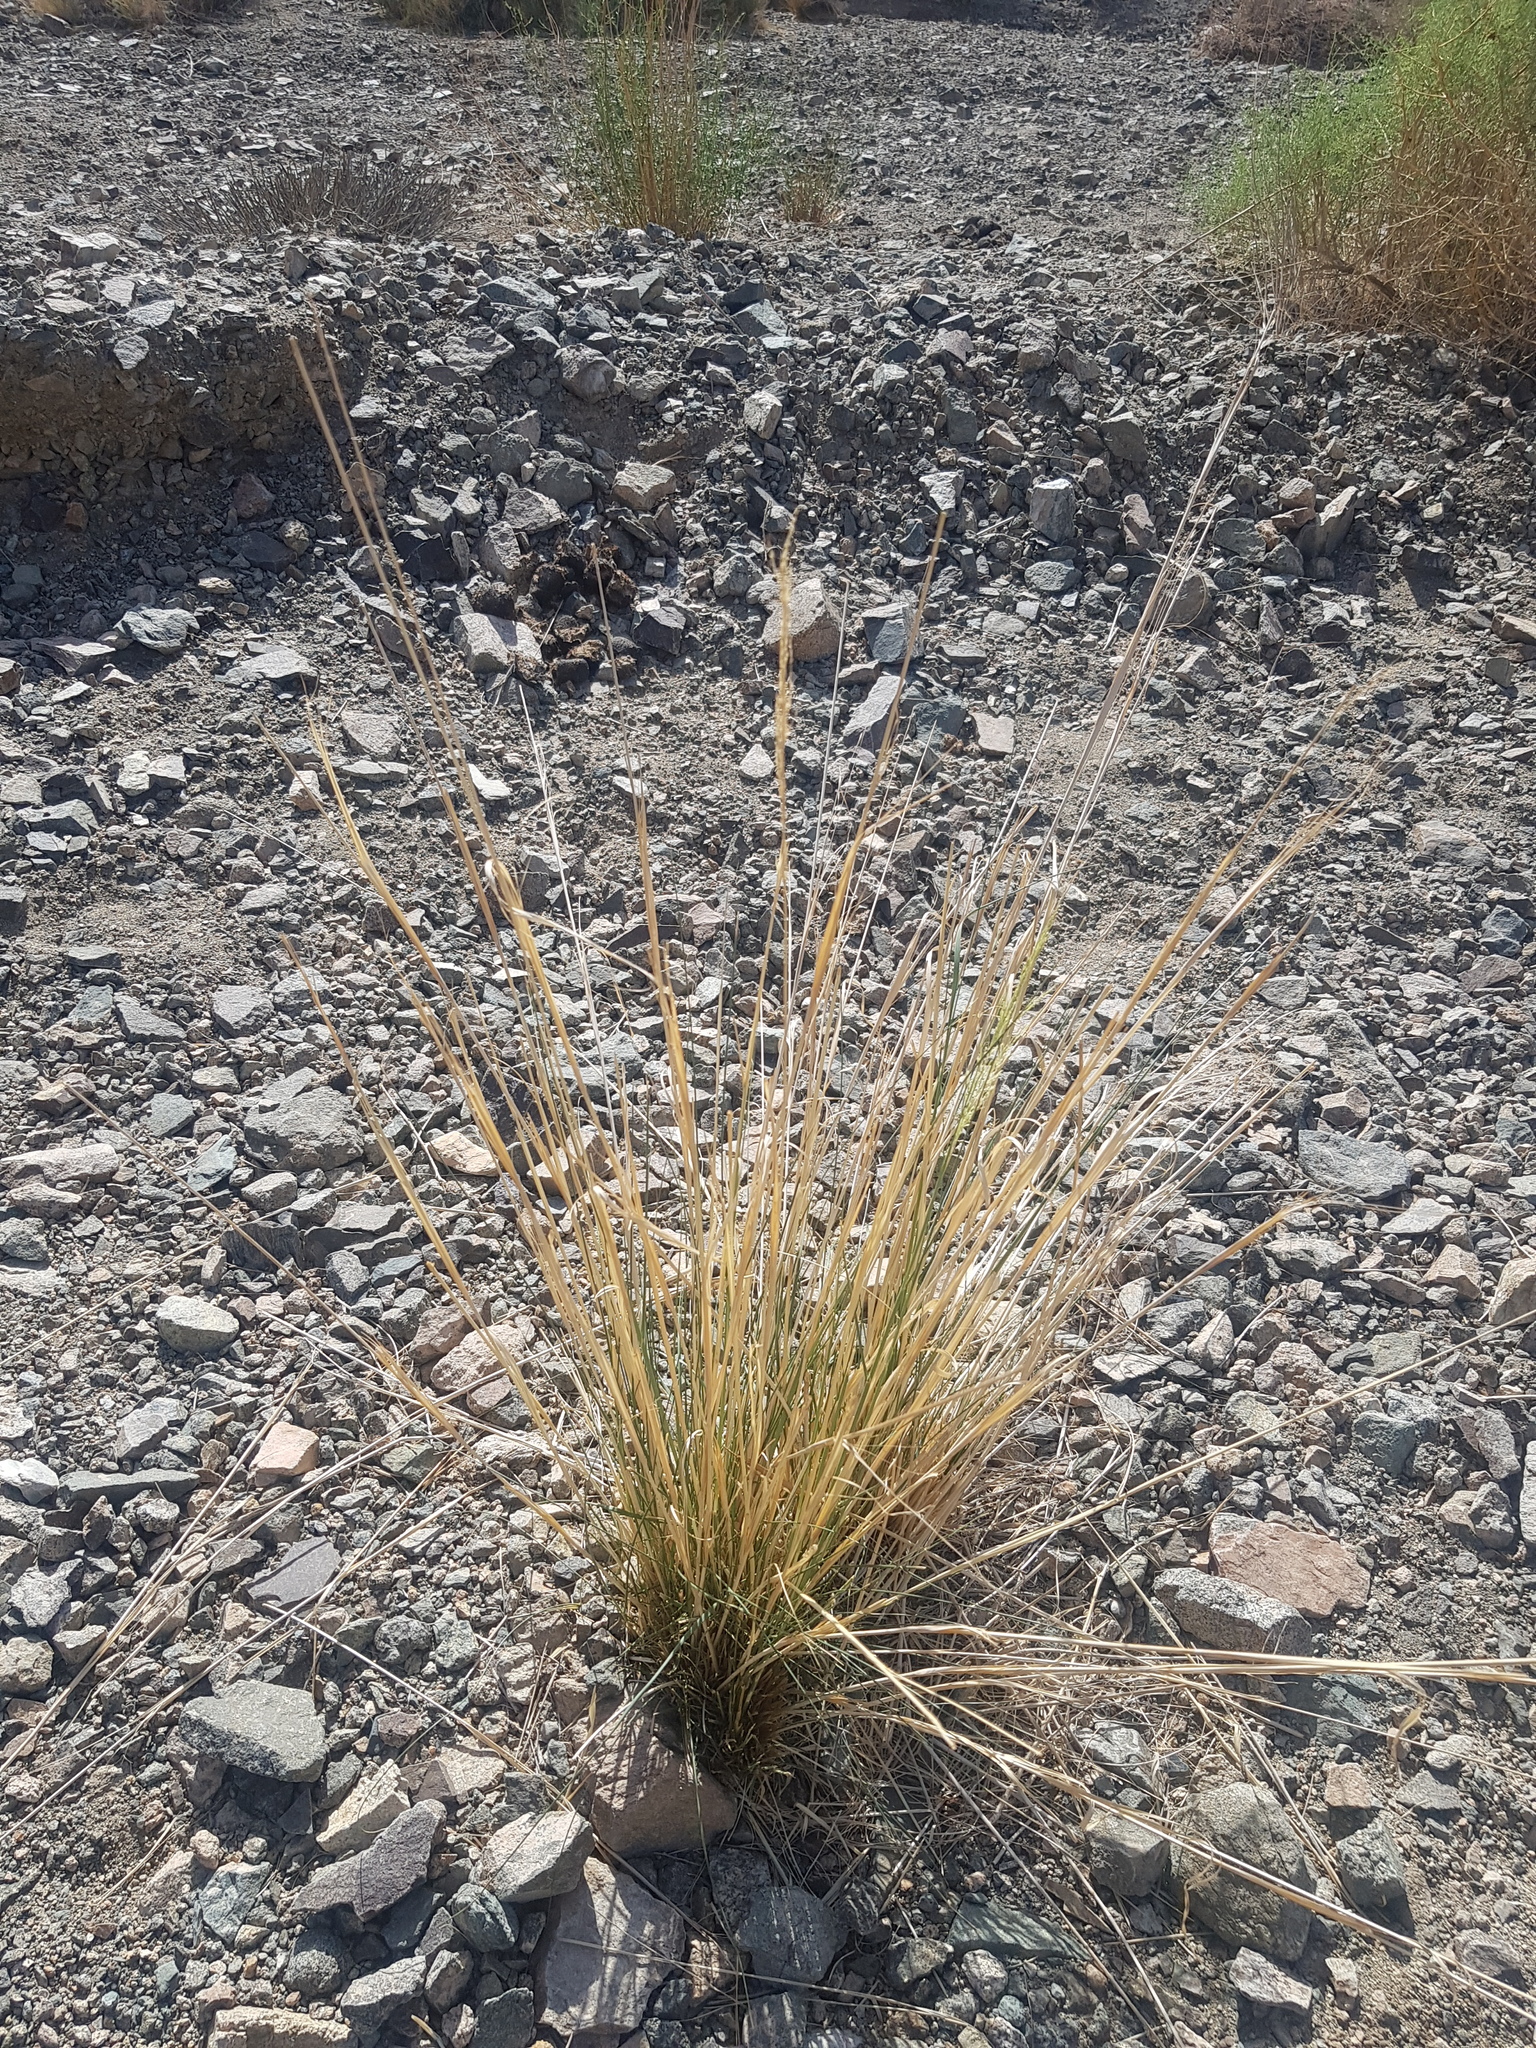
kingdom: Plantae
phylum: Tracheophyta
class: Liliopsida
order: Poales
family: Poaceae
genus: Neotrinia
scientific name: Neotrinia splendens
